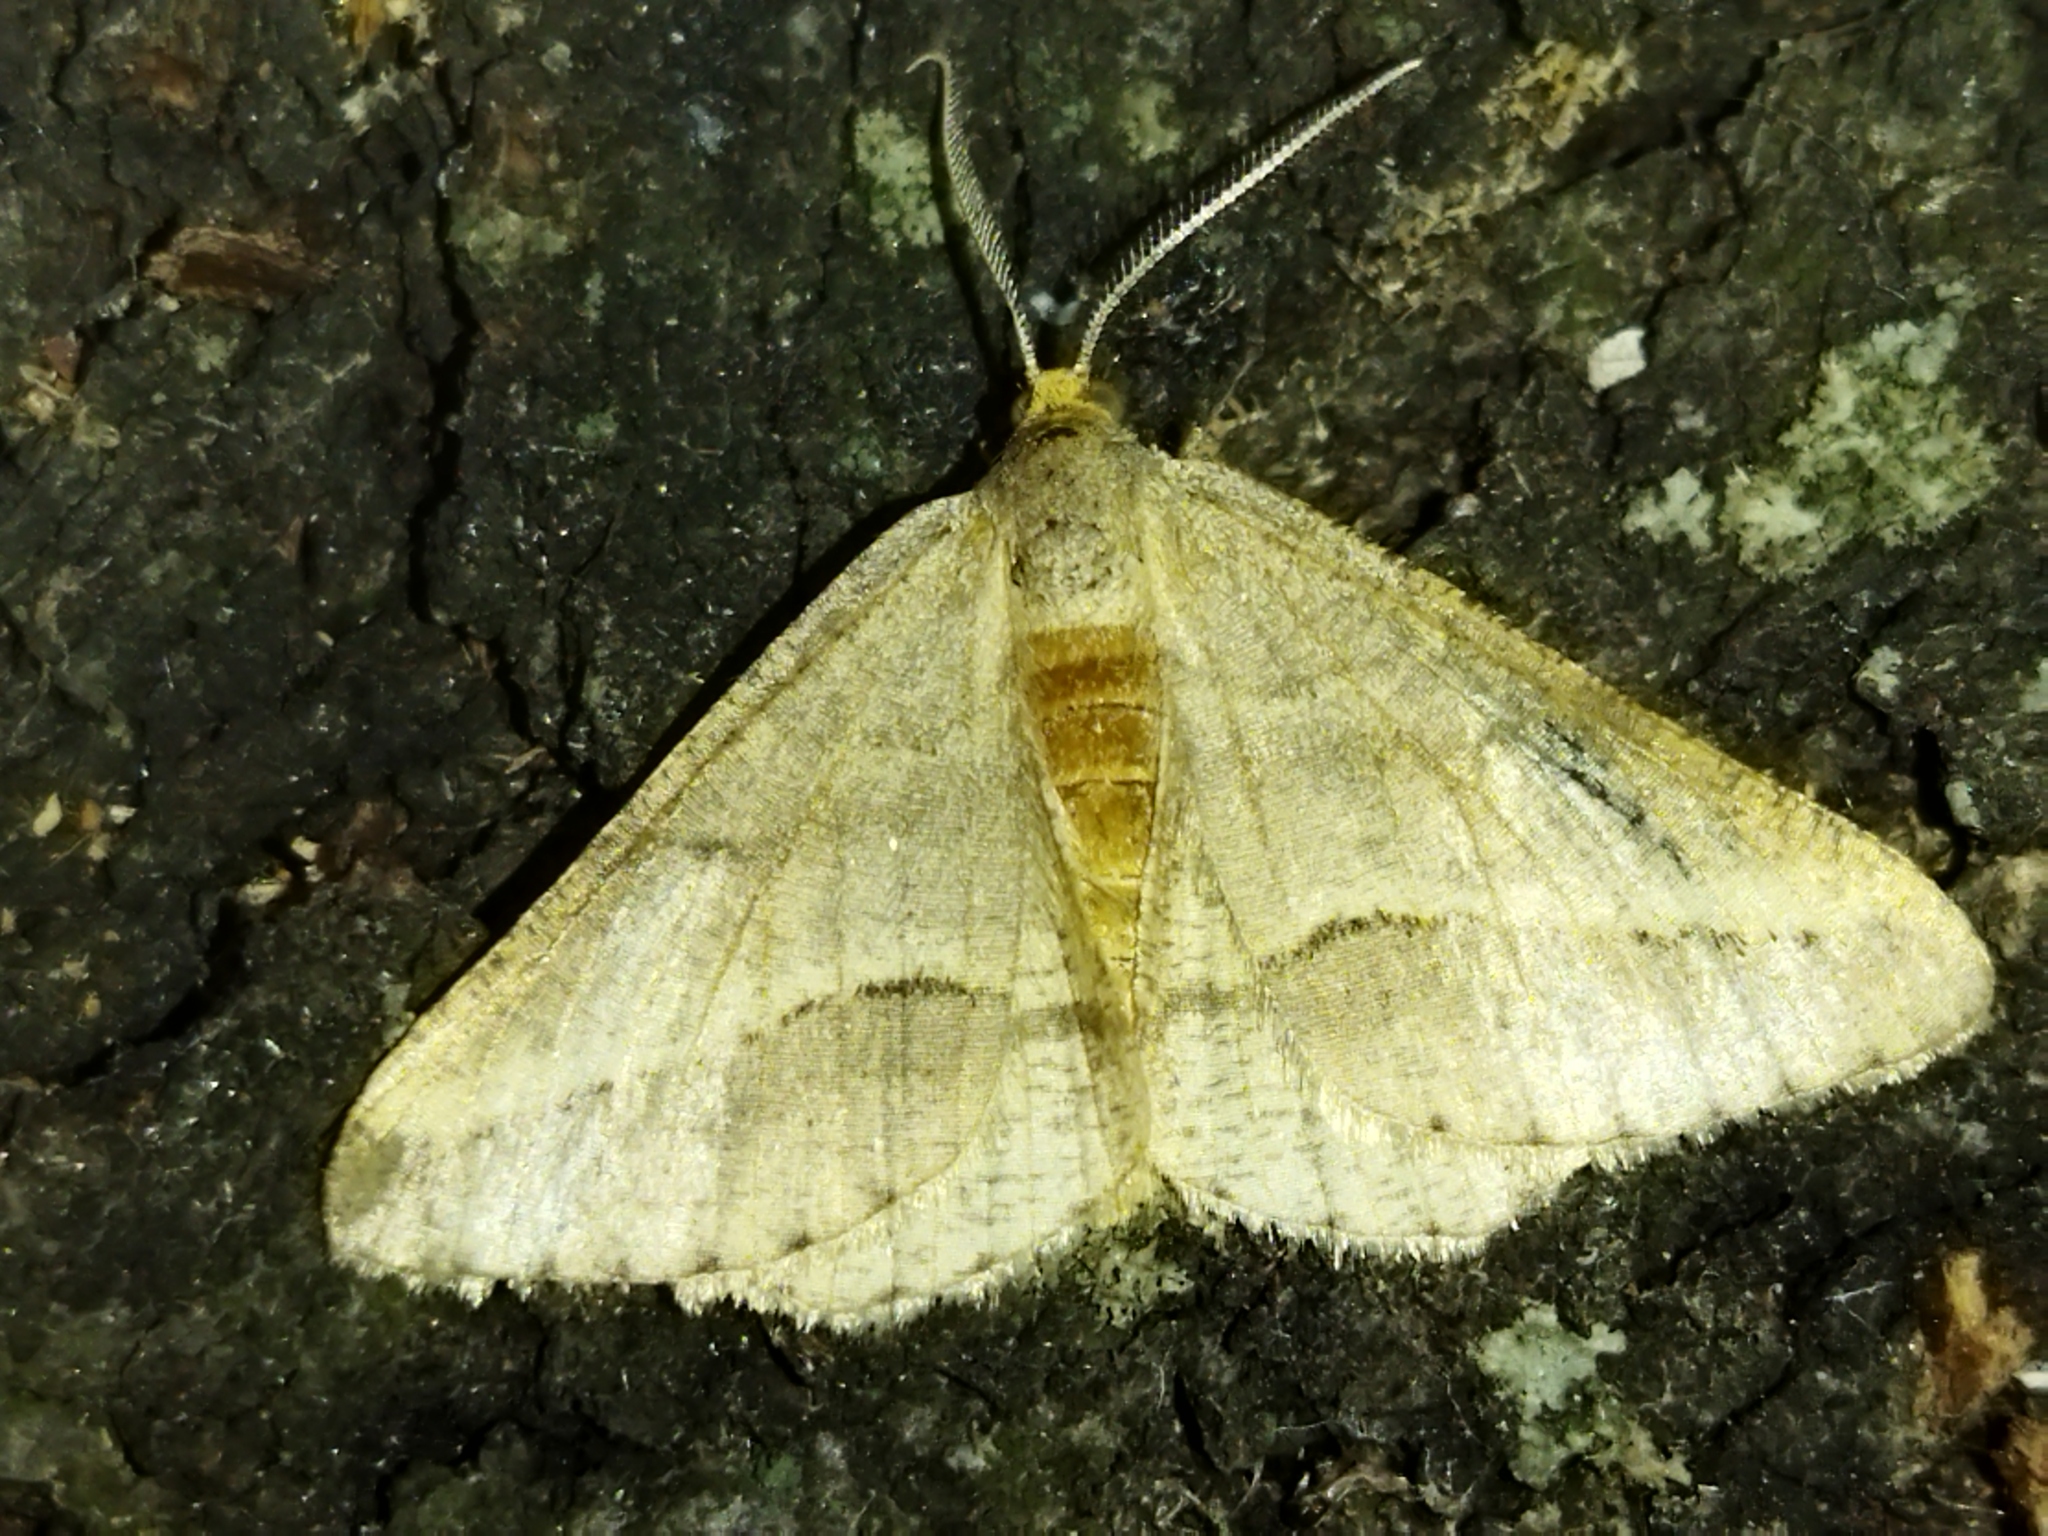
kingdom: Animalia
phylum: Arthropoda
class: Insecta
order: Lepidoptera
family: Geometridae
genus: Tephrina
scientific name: Tephrina arenacearia
